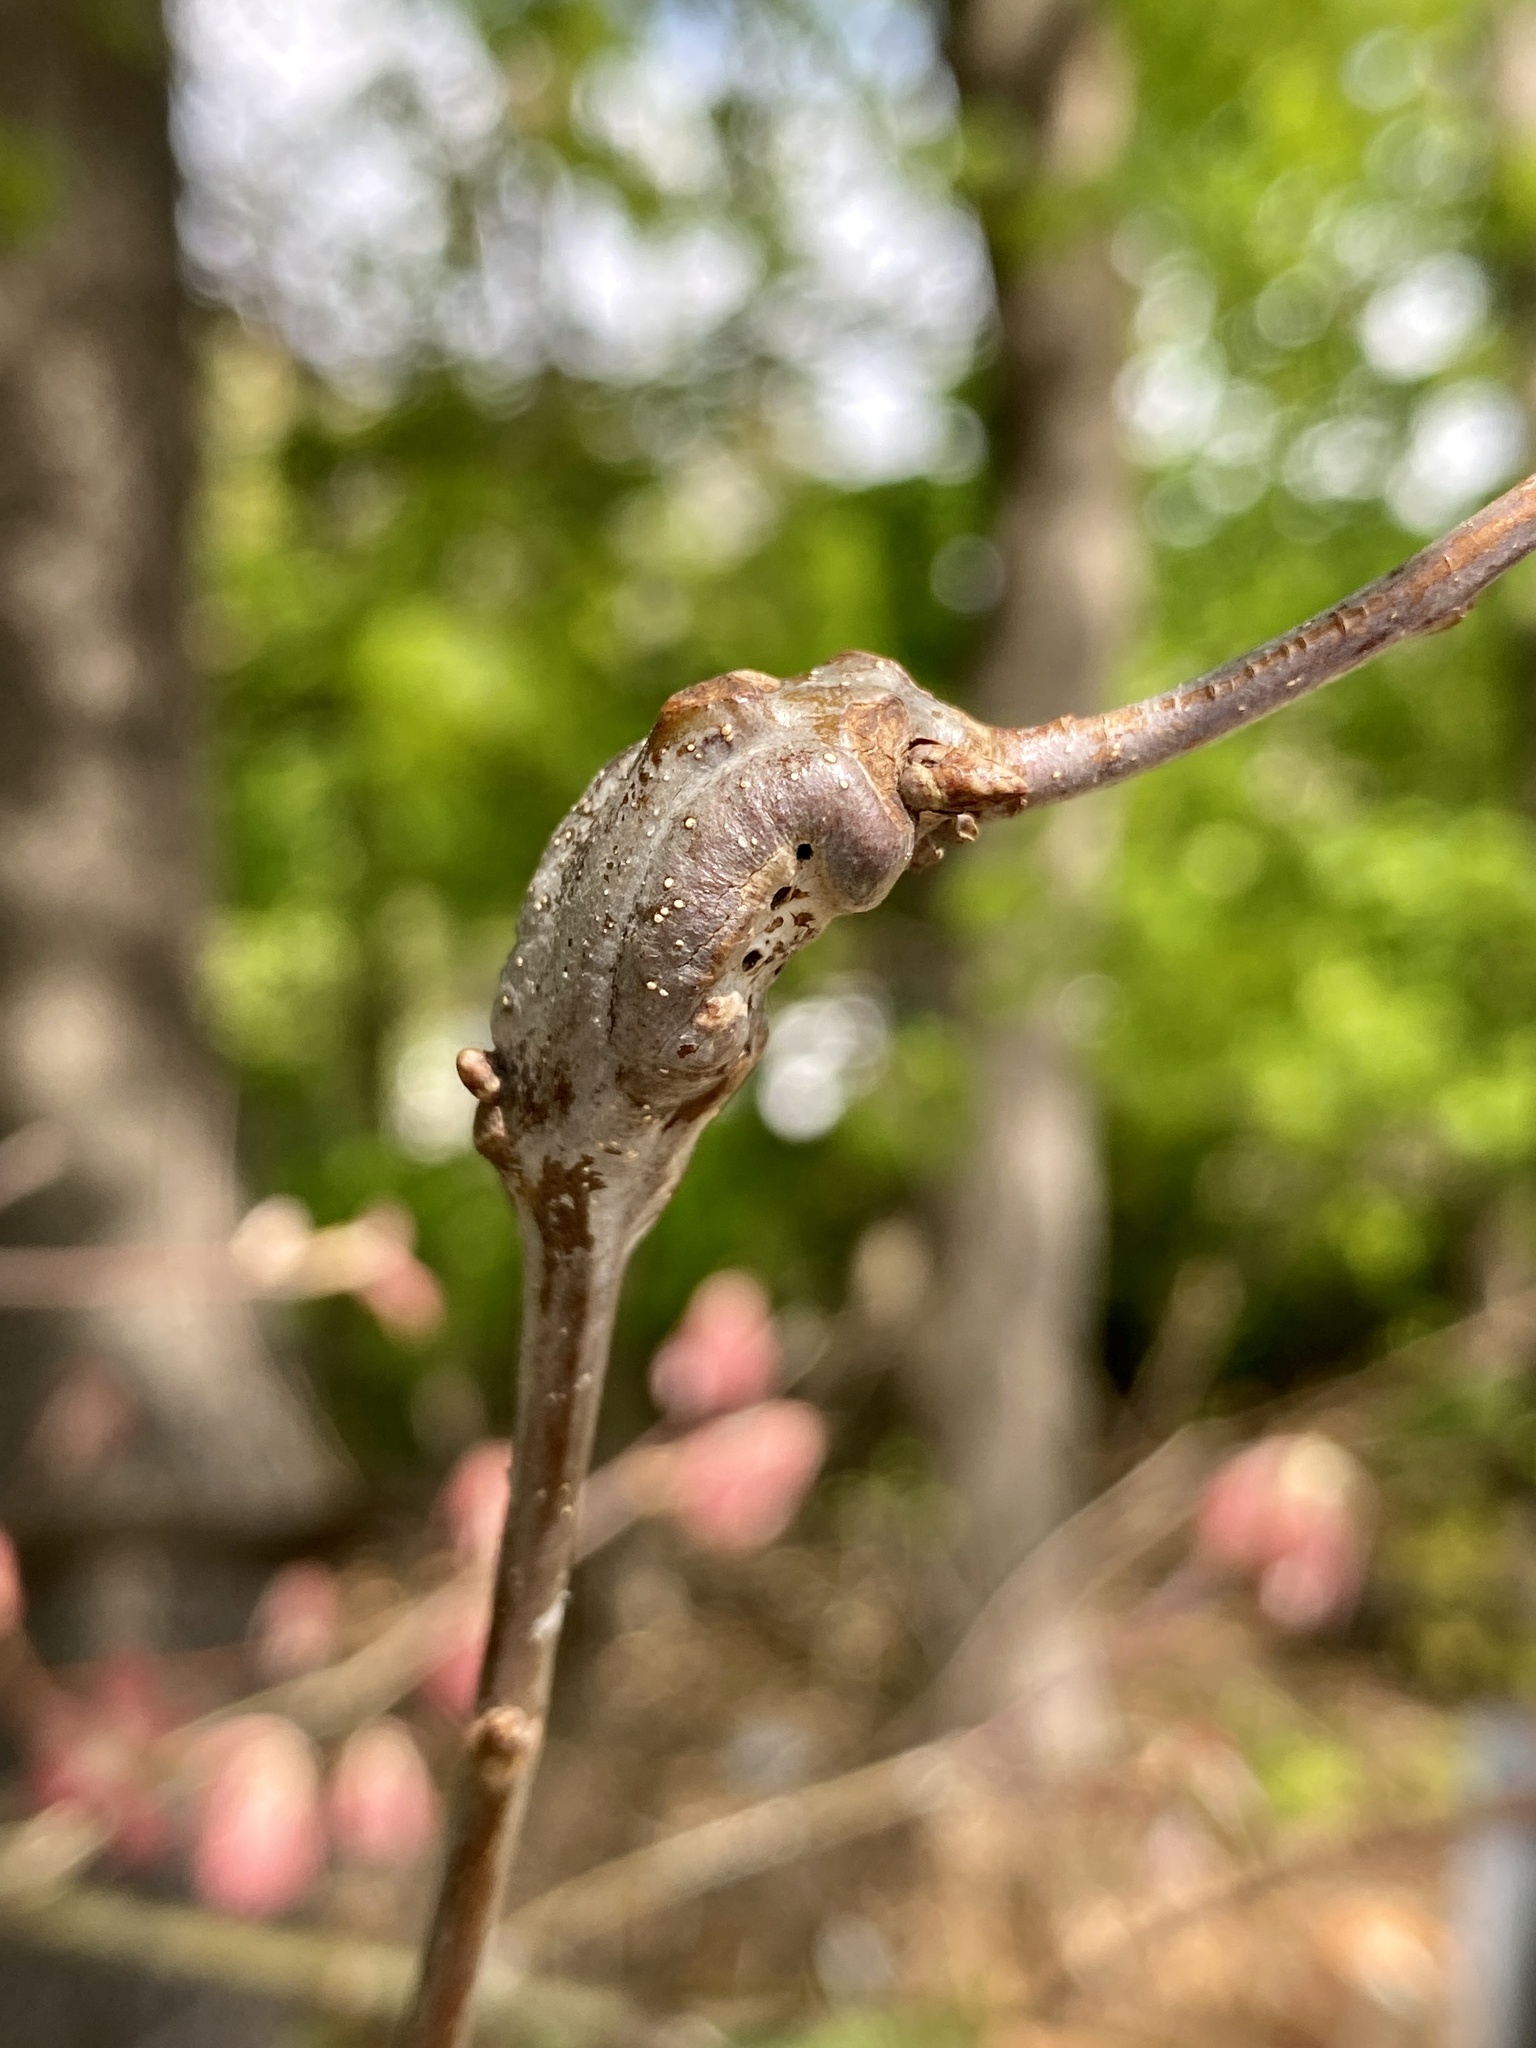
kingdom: Animalia
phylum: Arthropoda
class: Insecta
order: Hymenoptera
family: Cynipidae
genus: Neuroterus
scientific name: Neuroterus quercusbaccarum
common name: Common spangle gall
